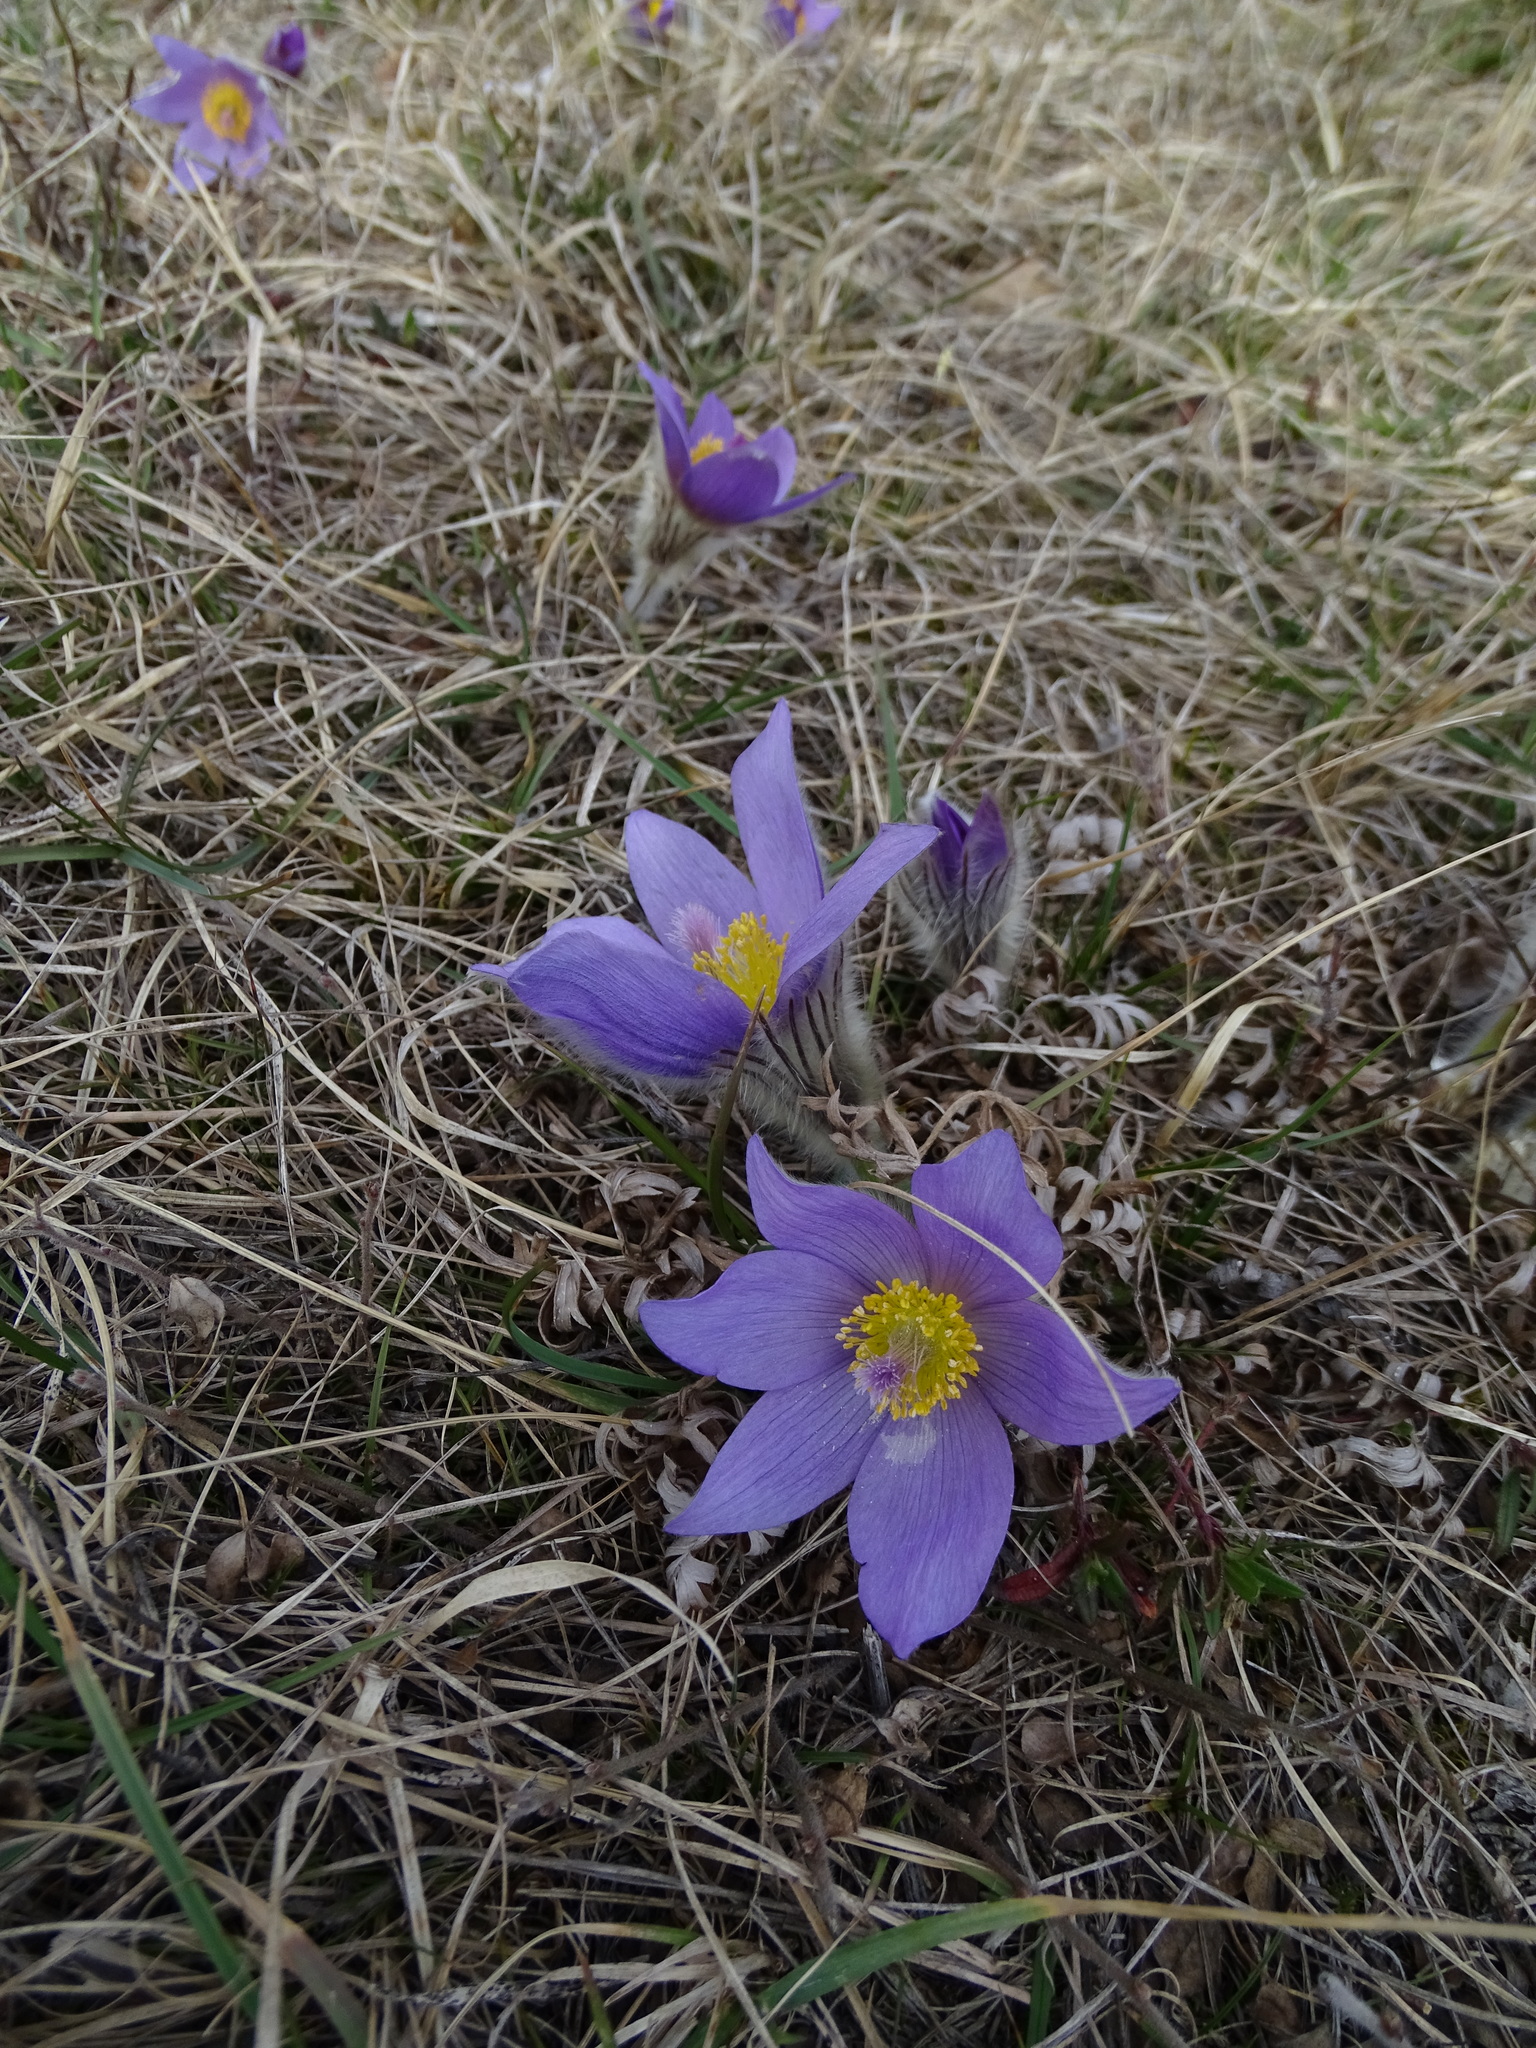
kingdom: Plantae
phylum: Tracheophyta
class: Magnoliopsida
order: Ranunculales
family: Ranunculaceae
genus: Pulsatilla
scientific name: Pulsatilla grandis
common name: Greater pasque flower
